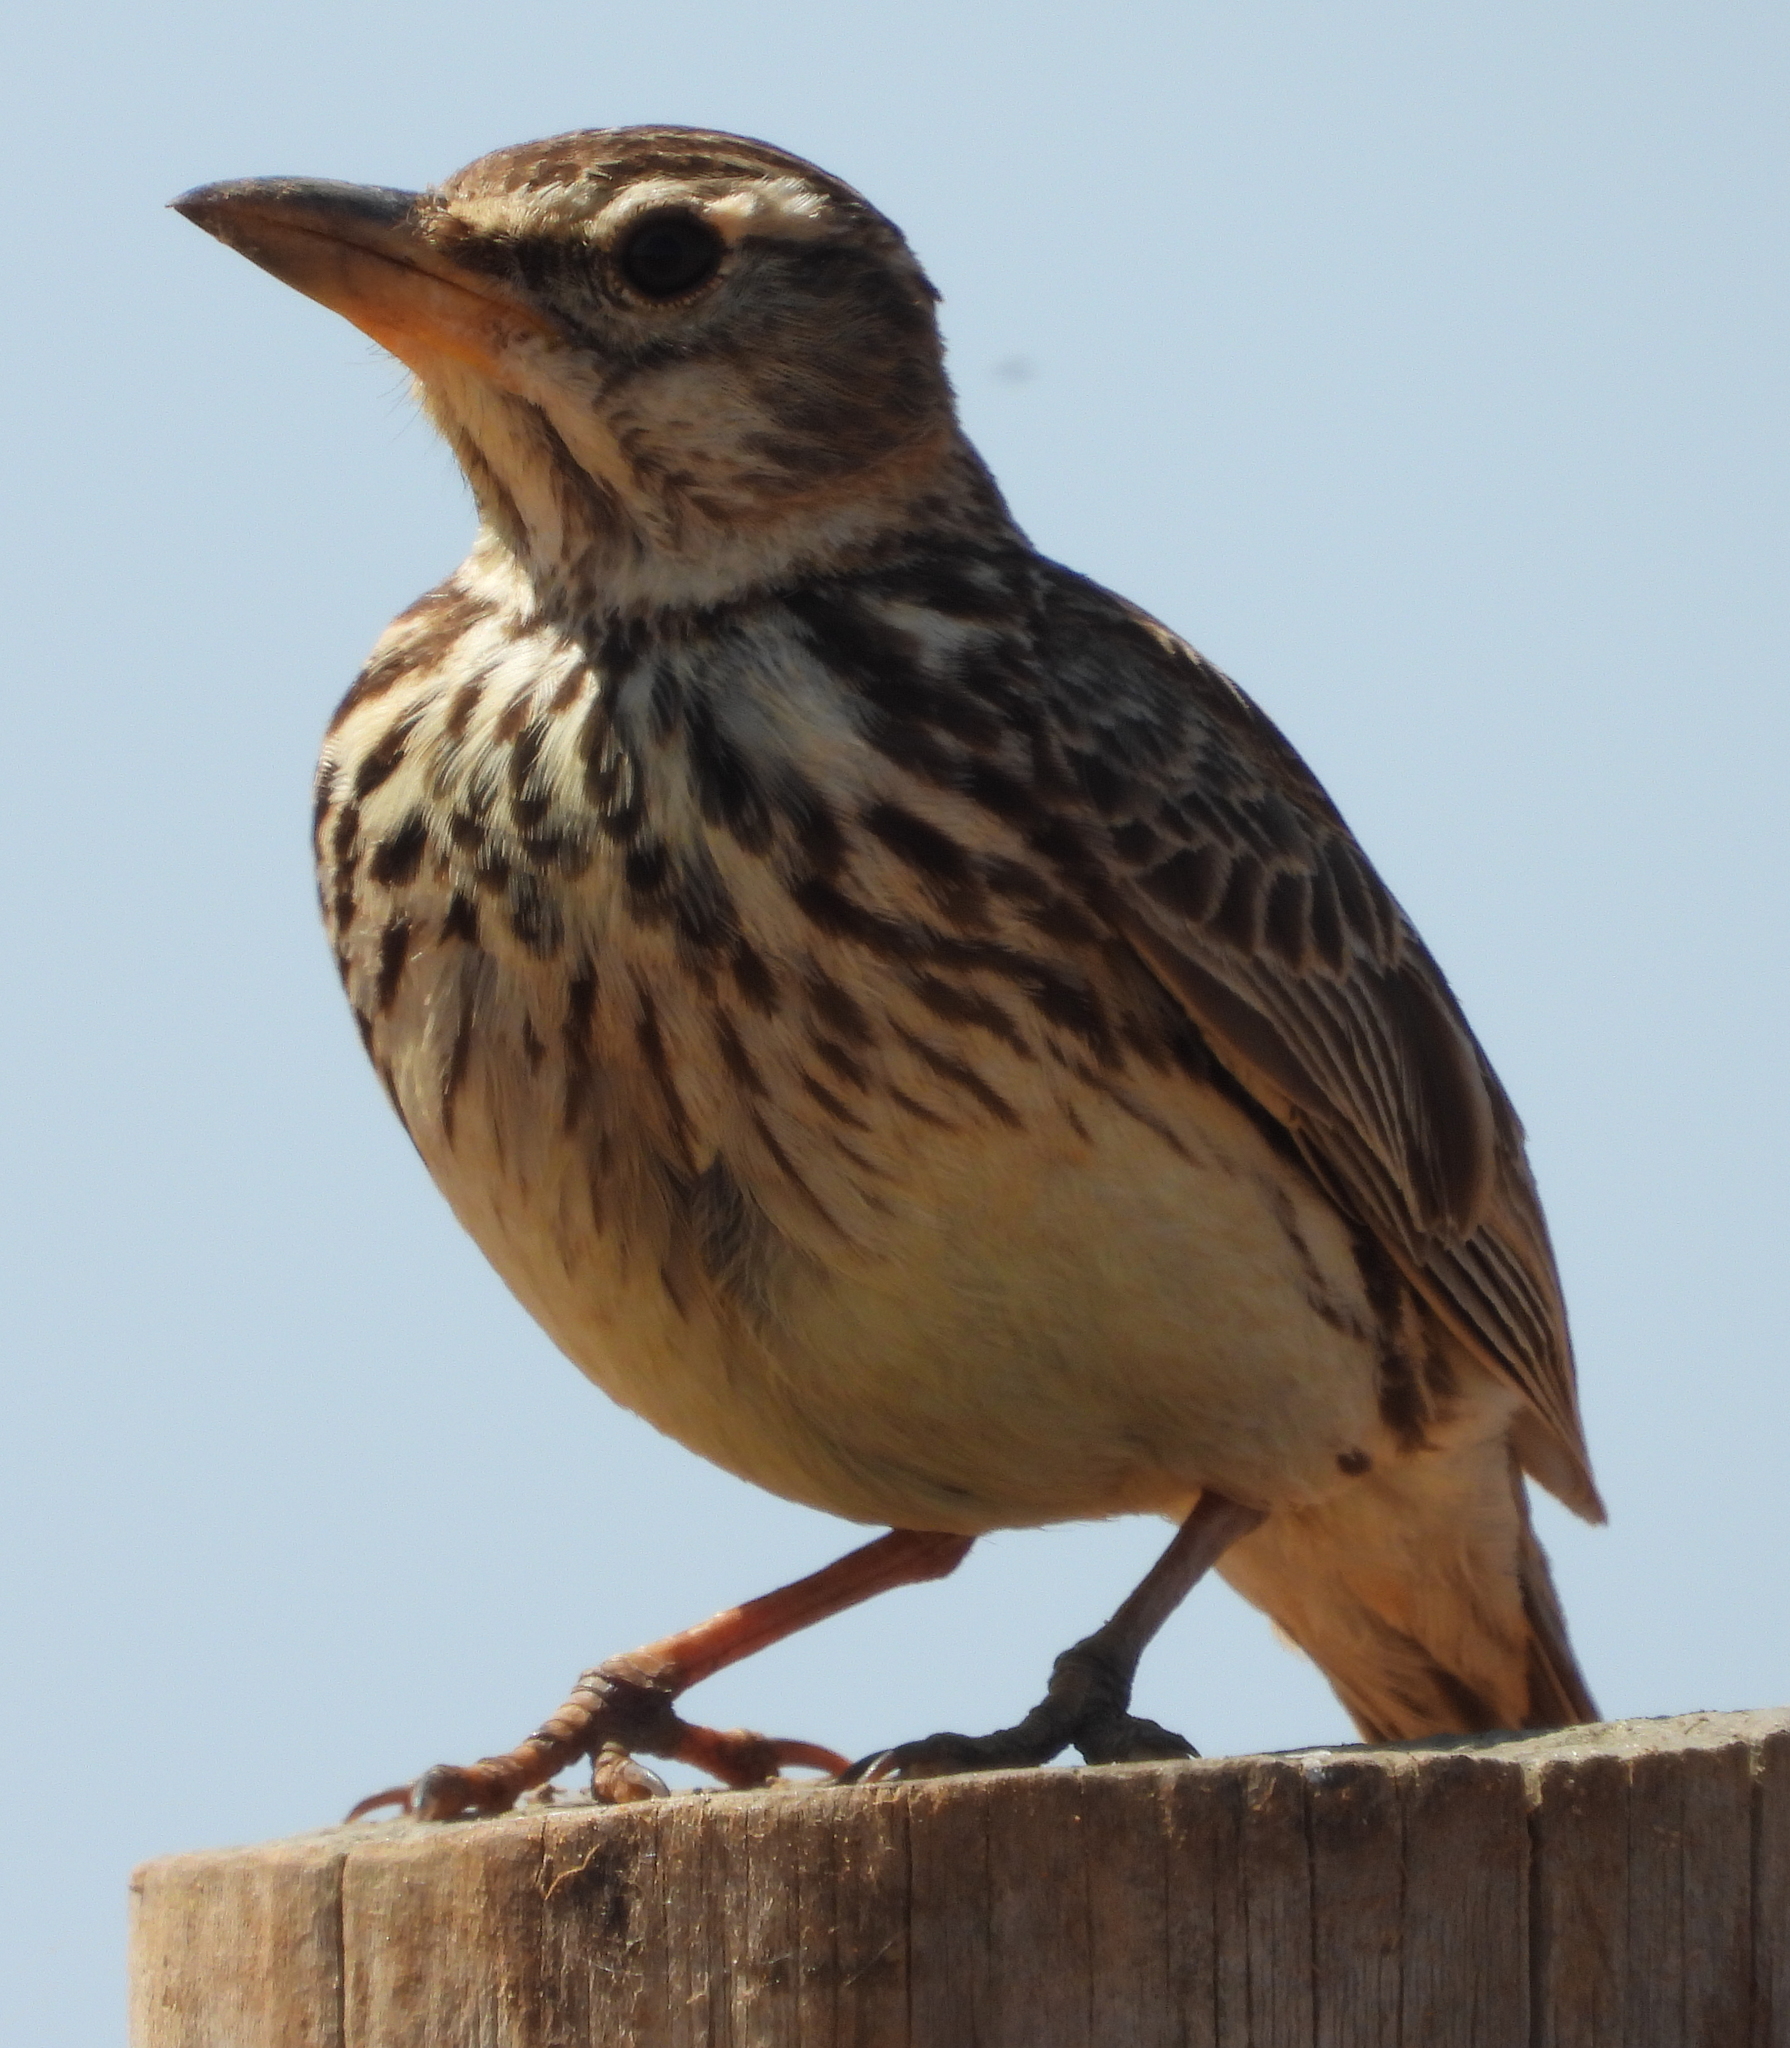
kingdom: Animalia
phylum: Chordata
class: Aves
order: Passeriformes
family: Alaudidae
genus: Galerida
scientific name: Galerida magnirostris
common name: Large-billed lark
